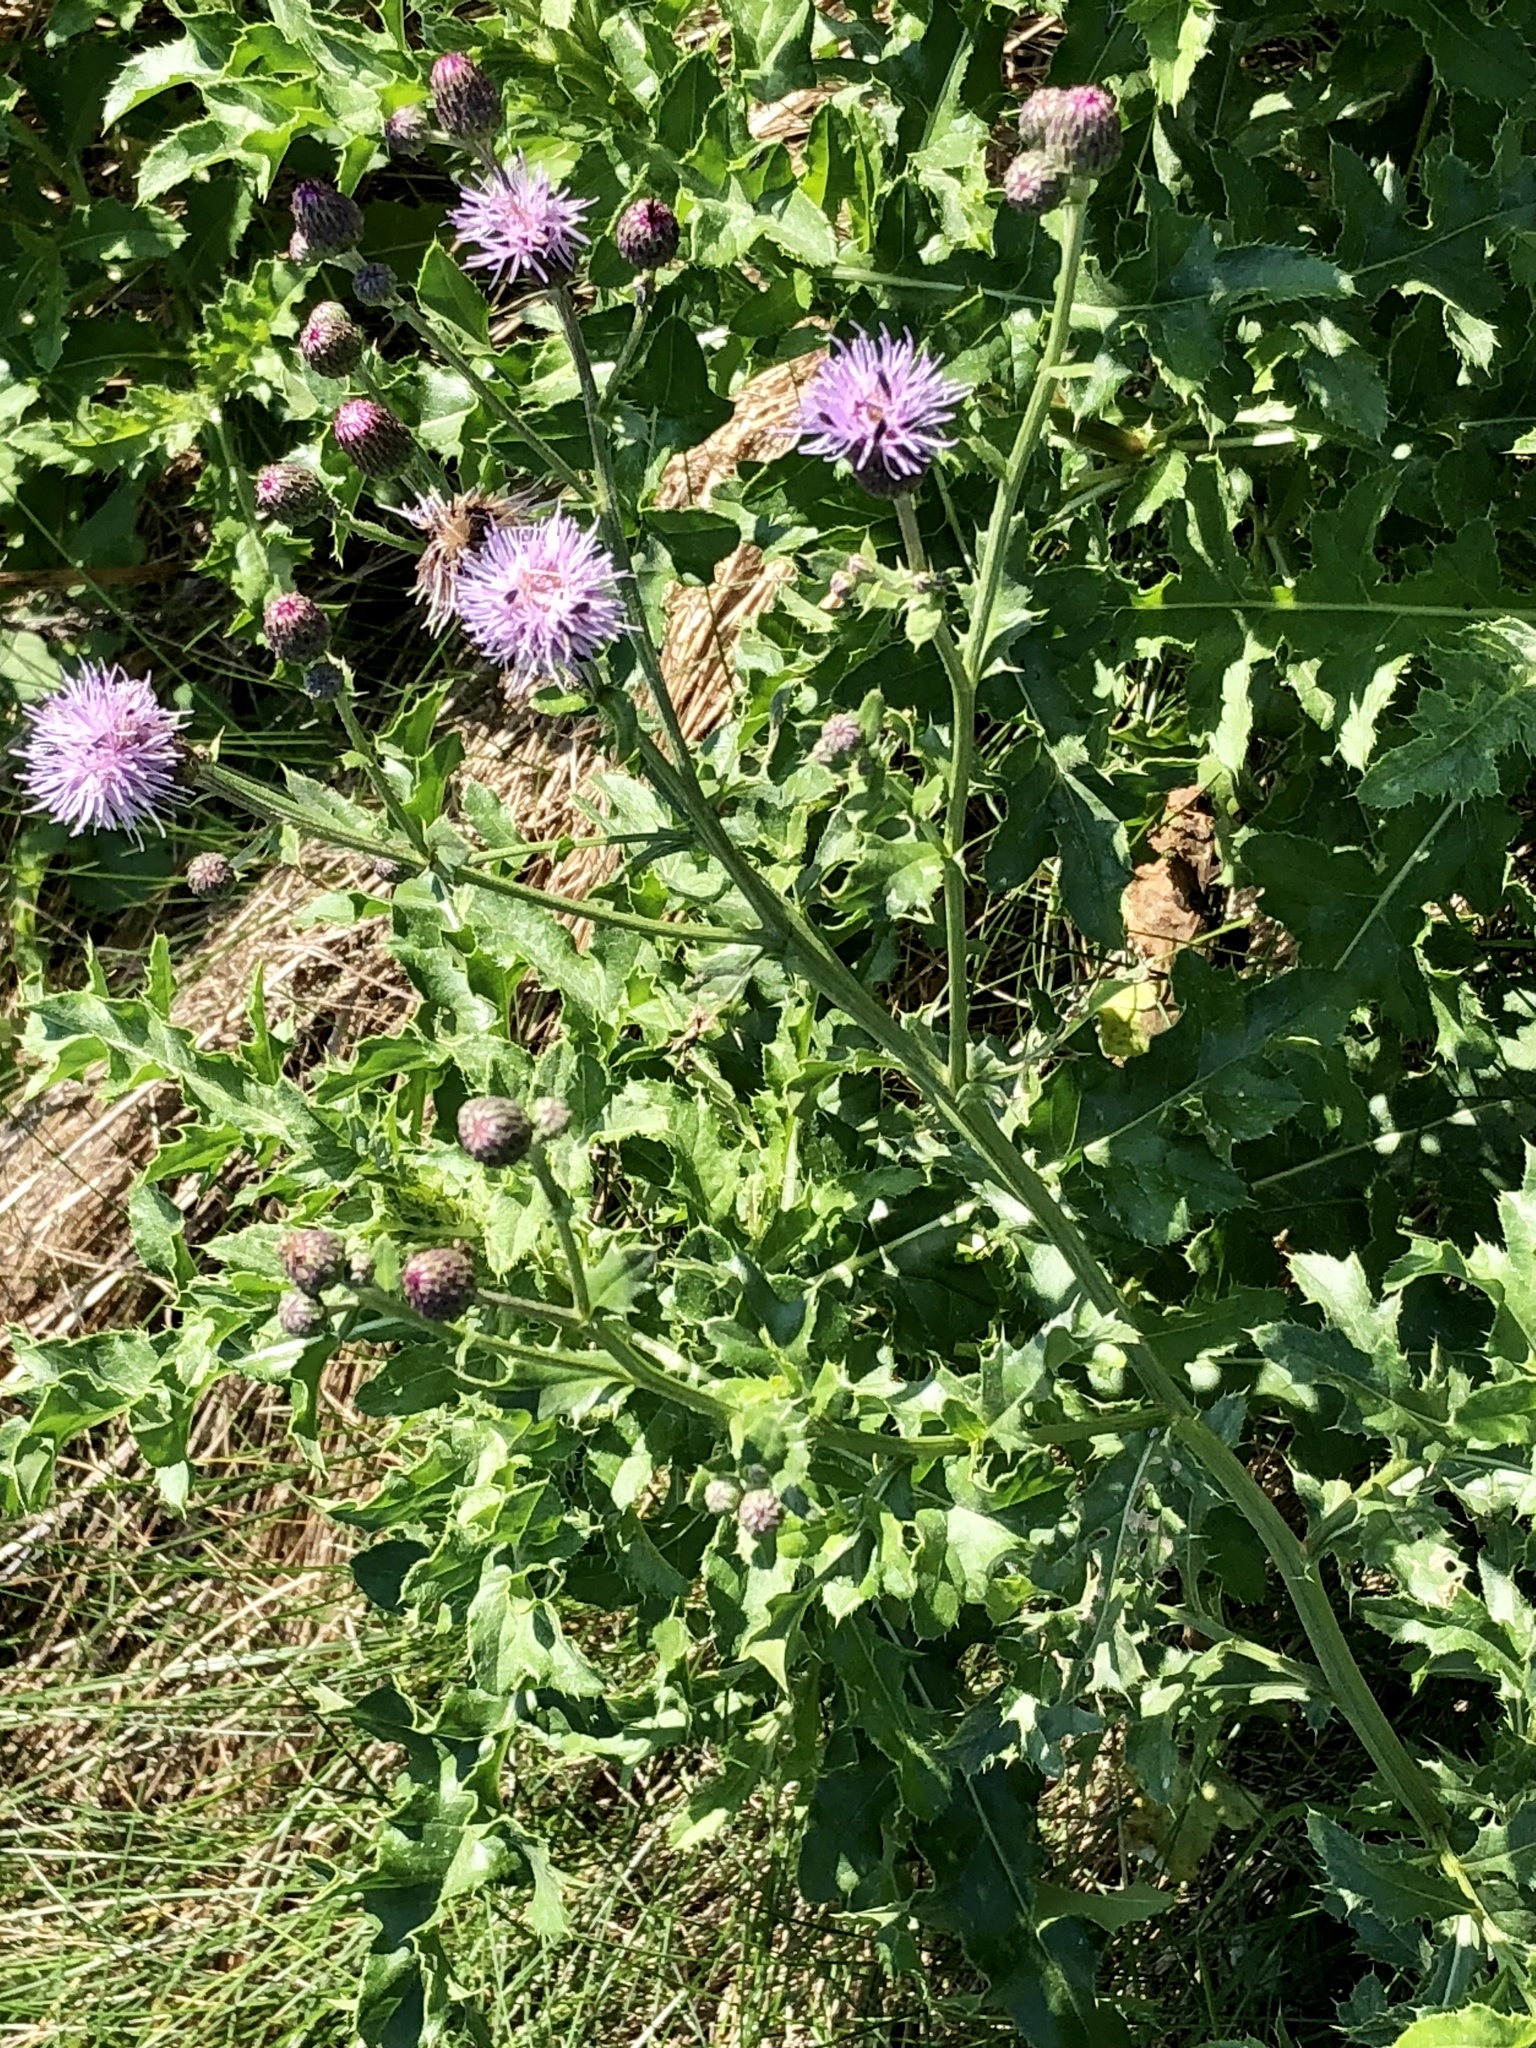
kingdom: Plantae
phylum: Tracheophyta
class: Magnoliopsida
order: Asterales
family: Asteraceae
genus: Cirsium
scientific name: Cirsium arvense
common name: Creeping thistle
